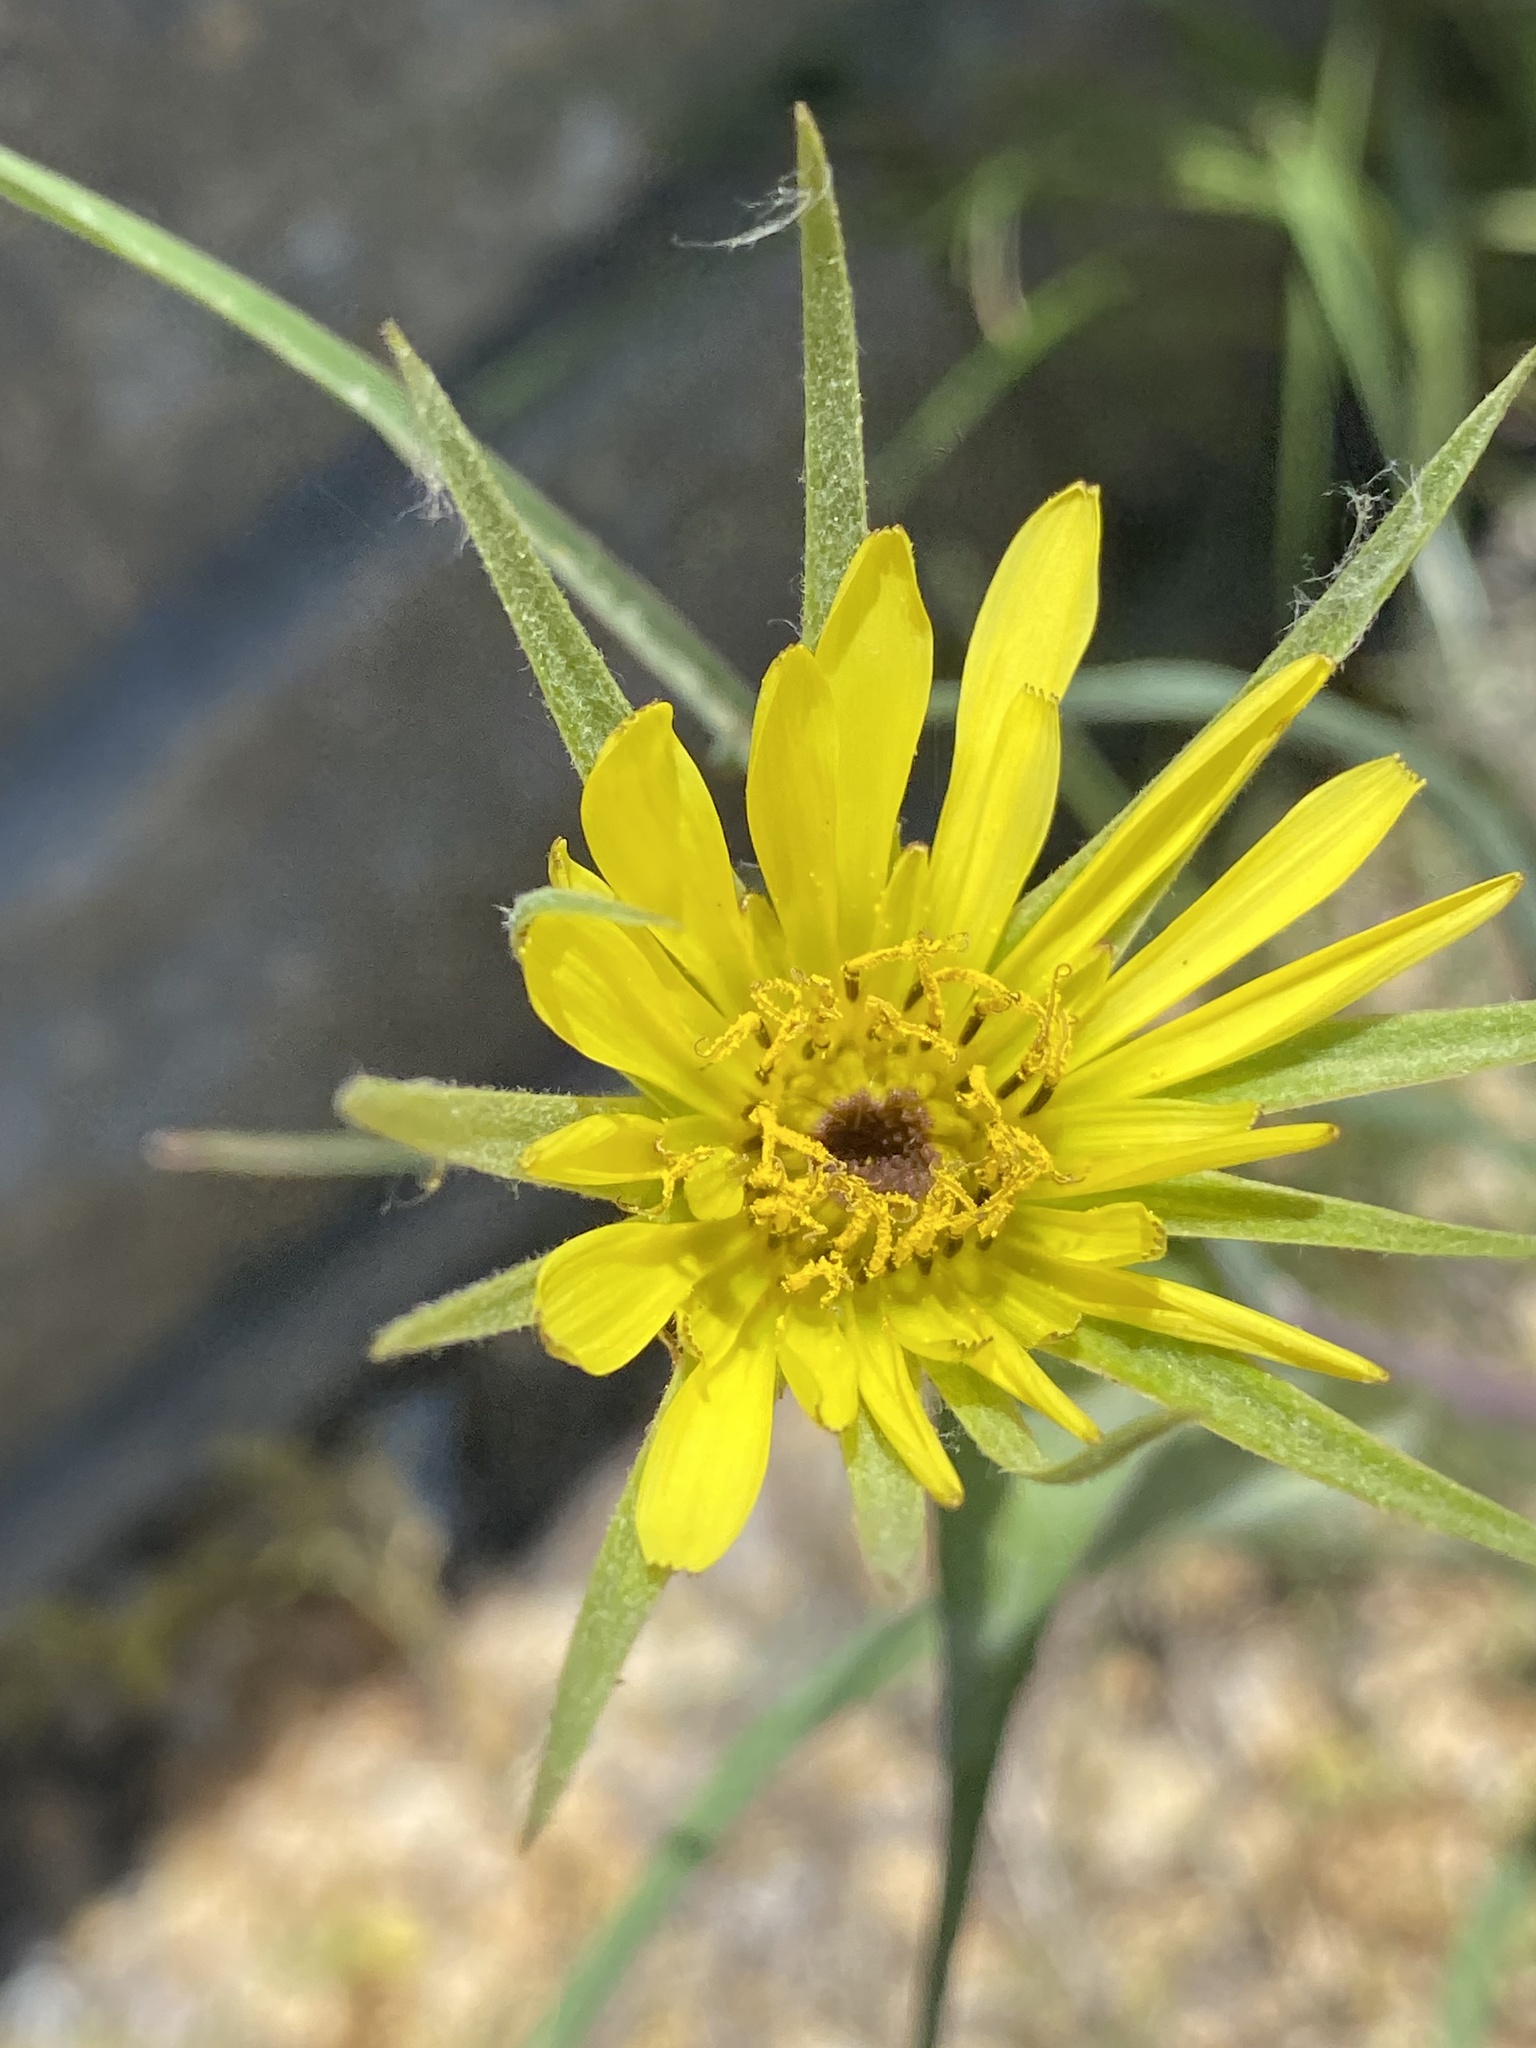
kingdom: Plantae
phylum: Tracheophyta
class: Magnoliopsida
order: Asterales
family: Asteraceae
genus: Tragopogon
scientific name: Tragopogon dubius
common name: Yellow salsify
